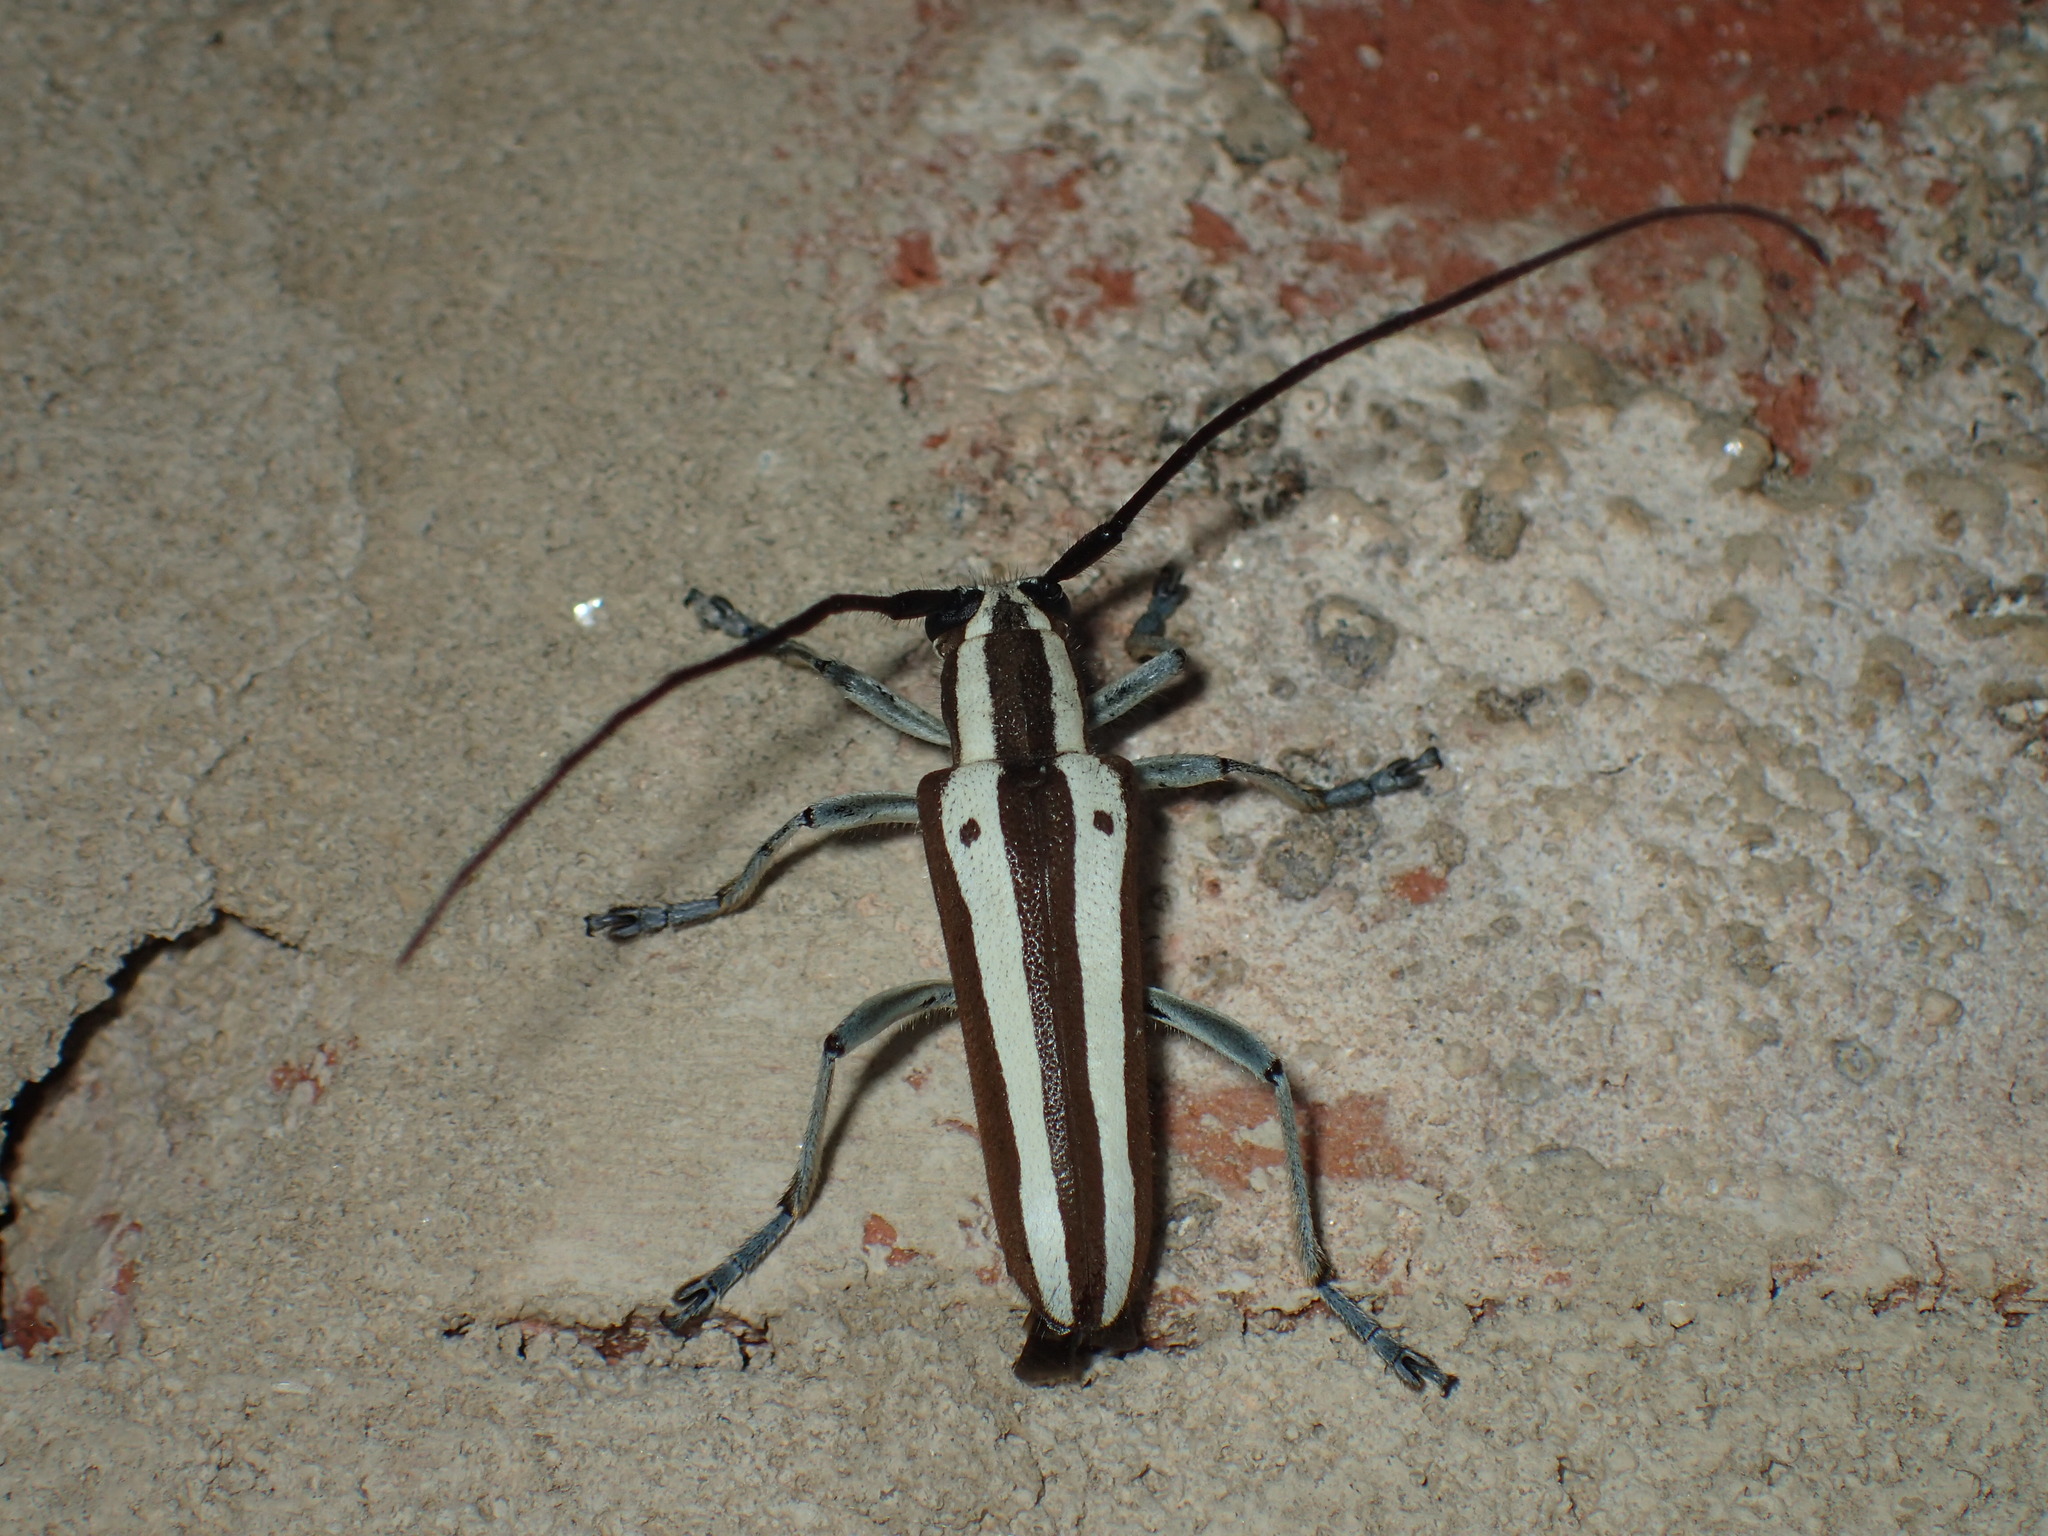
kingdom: Animalia
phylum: Arthropoda
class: Insecta
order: Coleoptera
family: Cerambycidae
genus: Saperda
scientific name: Saperda candida
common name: Round-headed borer
